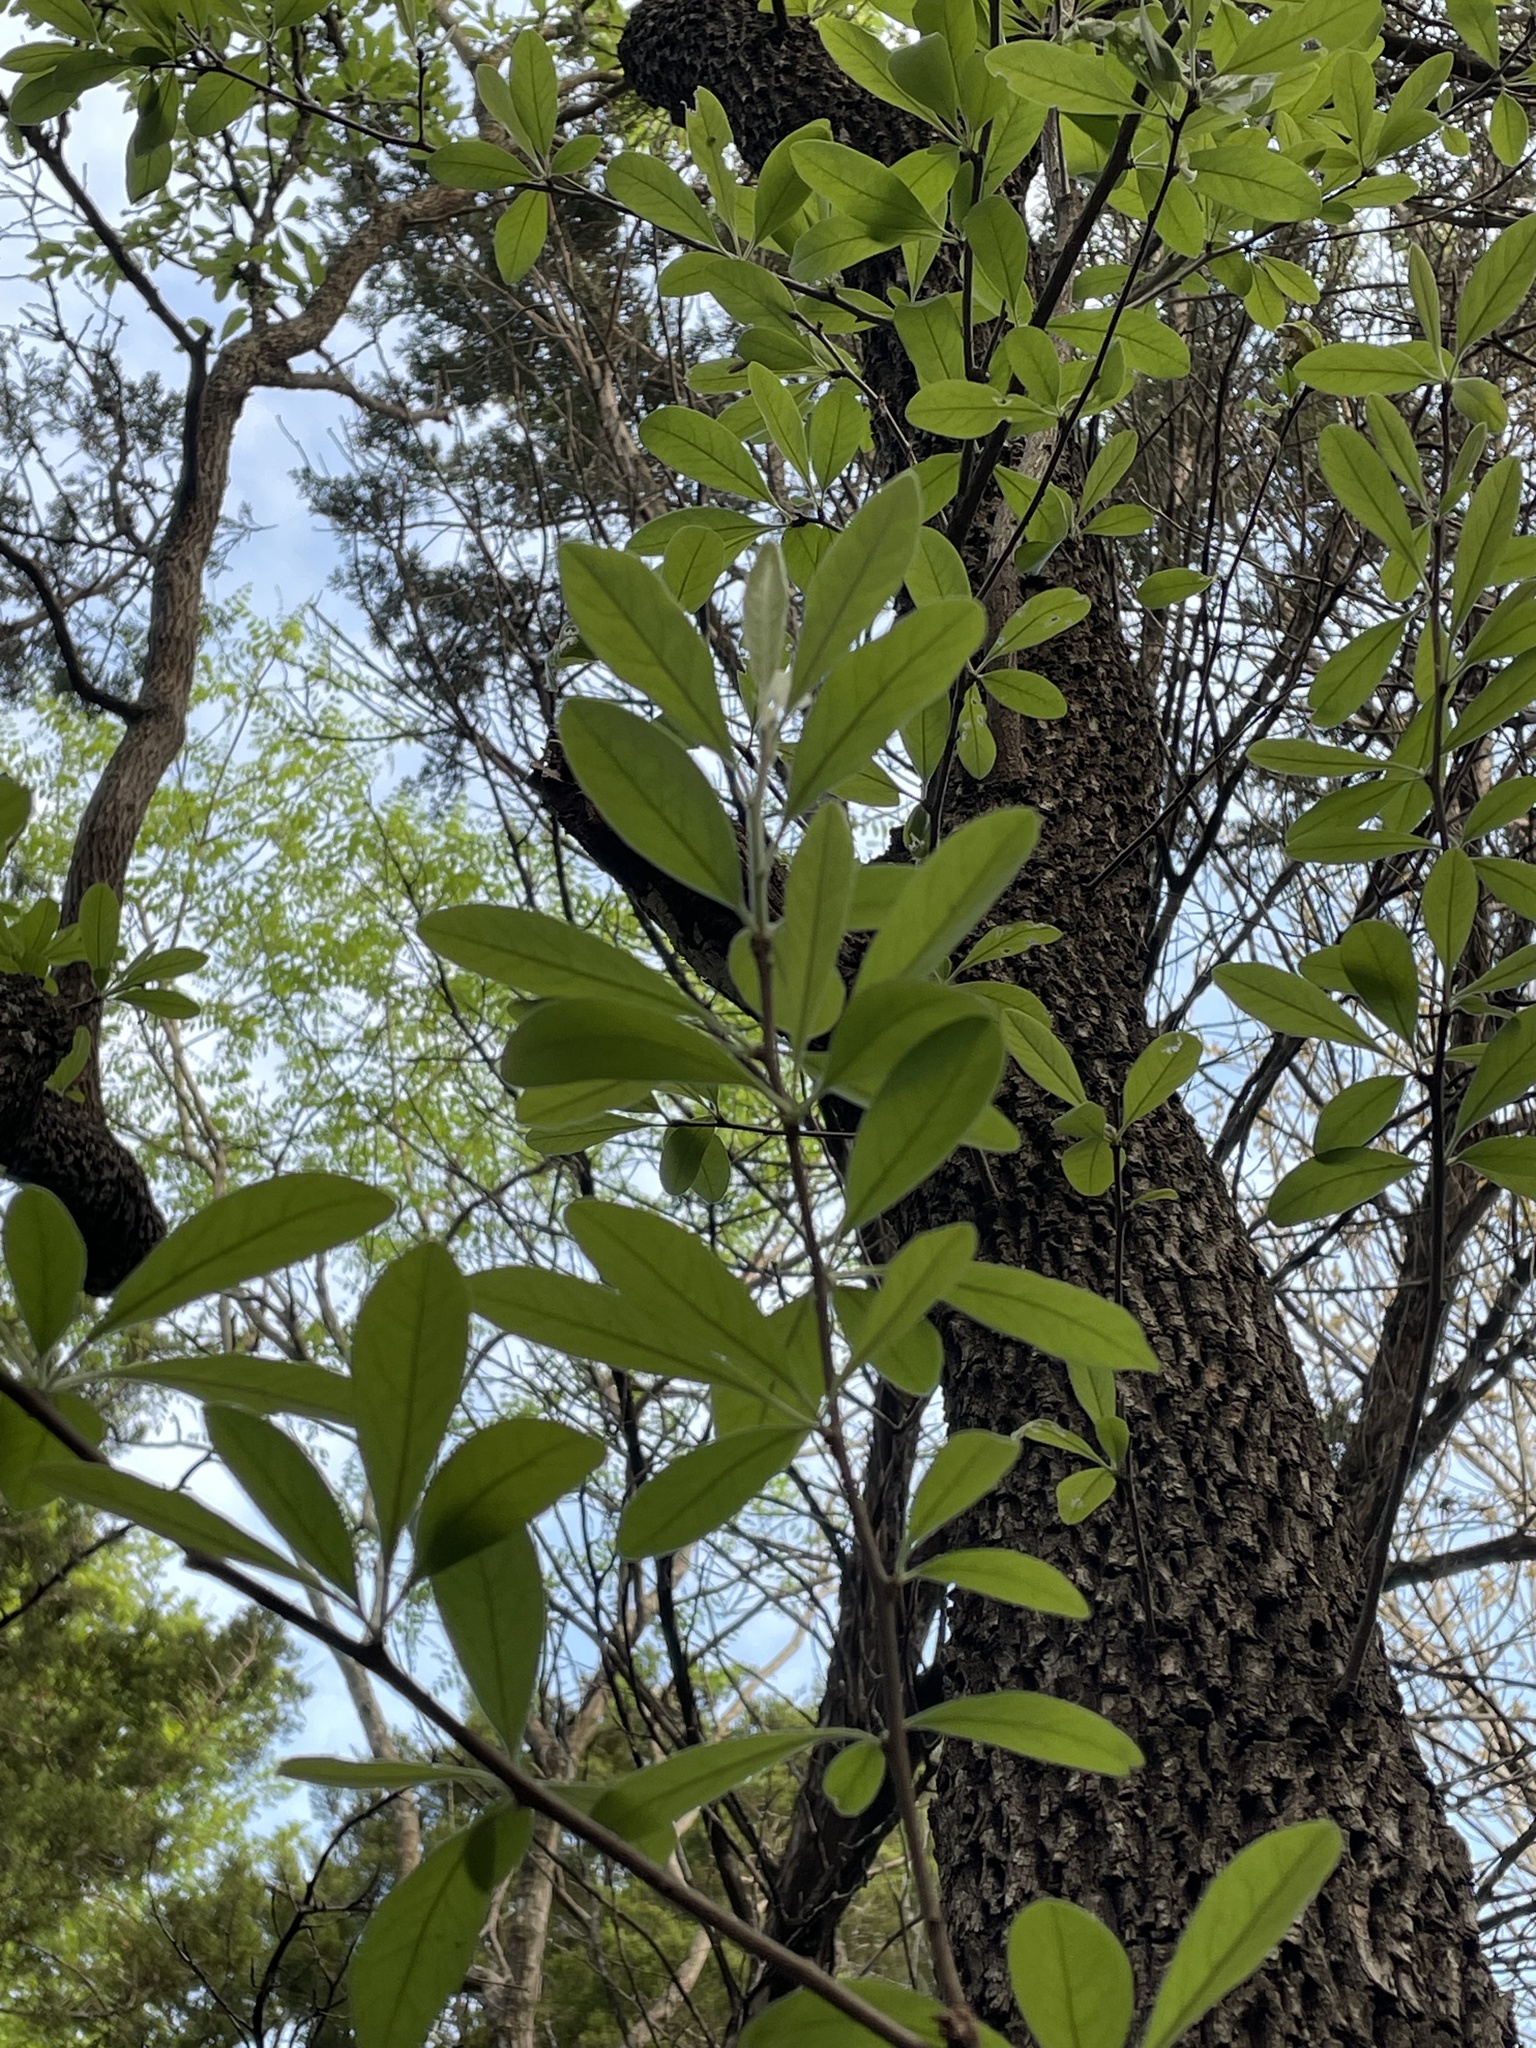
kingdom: Plantae
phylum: Tracheophyta
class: Magnoliopsida
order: Ericales
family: Sapotaceae
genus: Sideroxylon
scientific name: Sideroxylon lanuginosum
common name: Chittamwood
